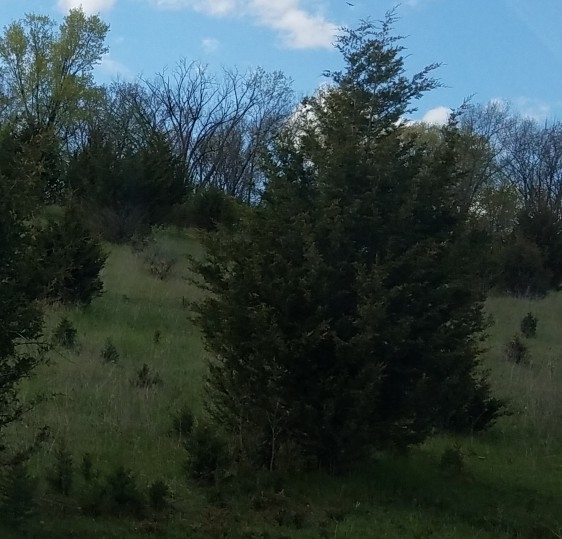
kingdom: Plantae
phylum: Tracheophyta
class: Pinopsida
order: Pinales
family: Cupressaceae
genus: Juniperus
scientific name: Juniperus virginiana
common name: Red juniper
